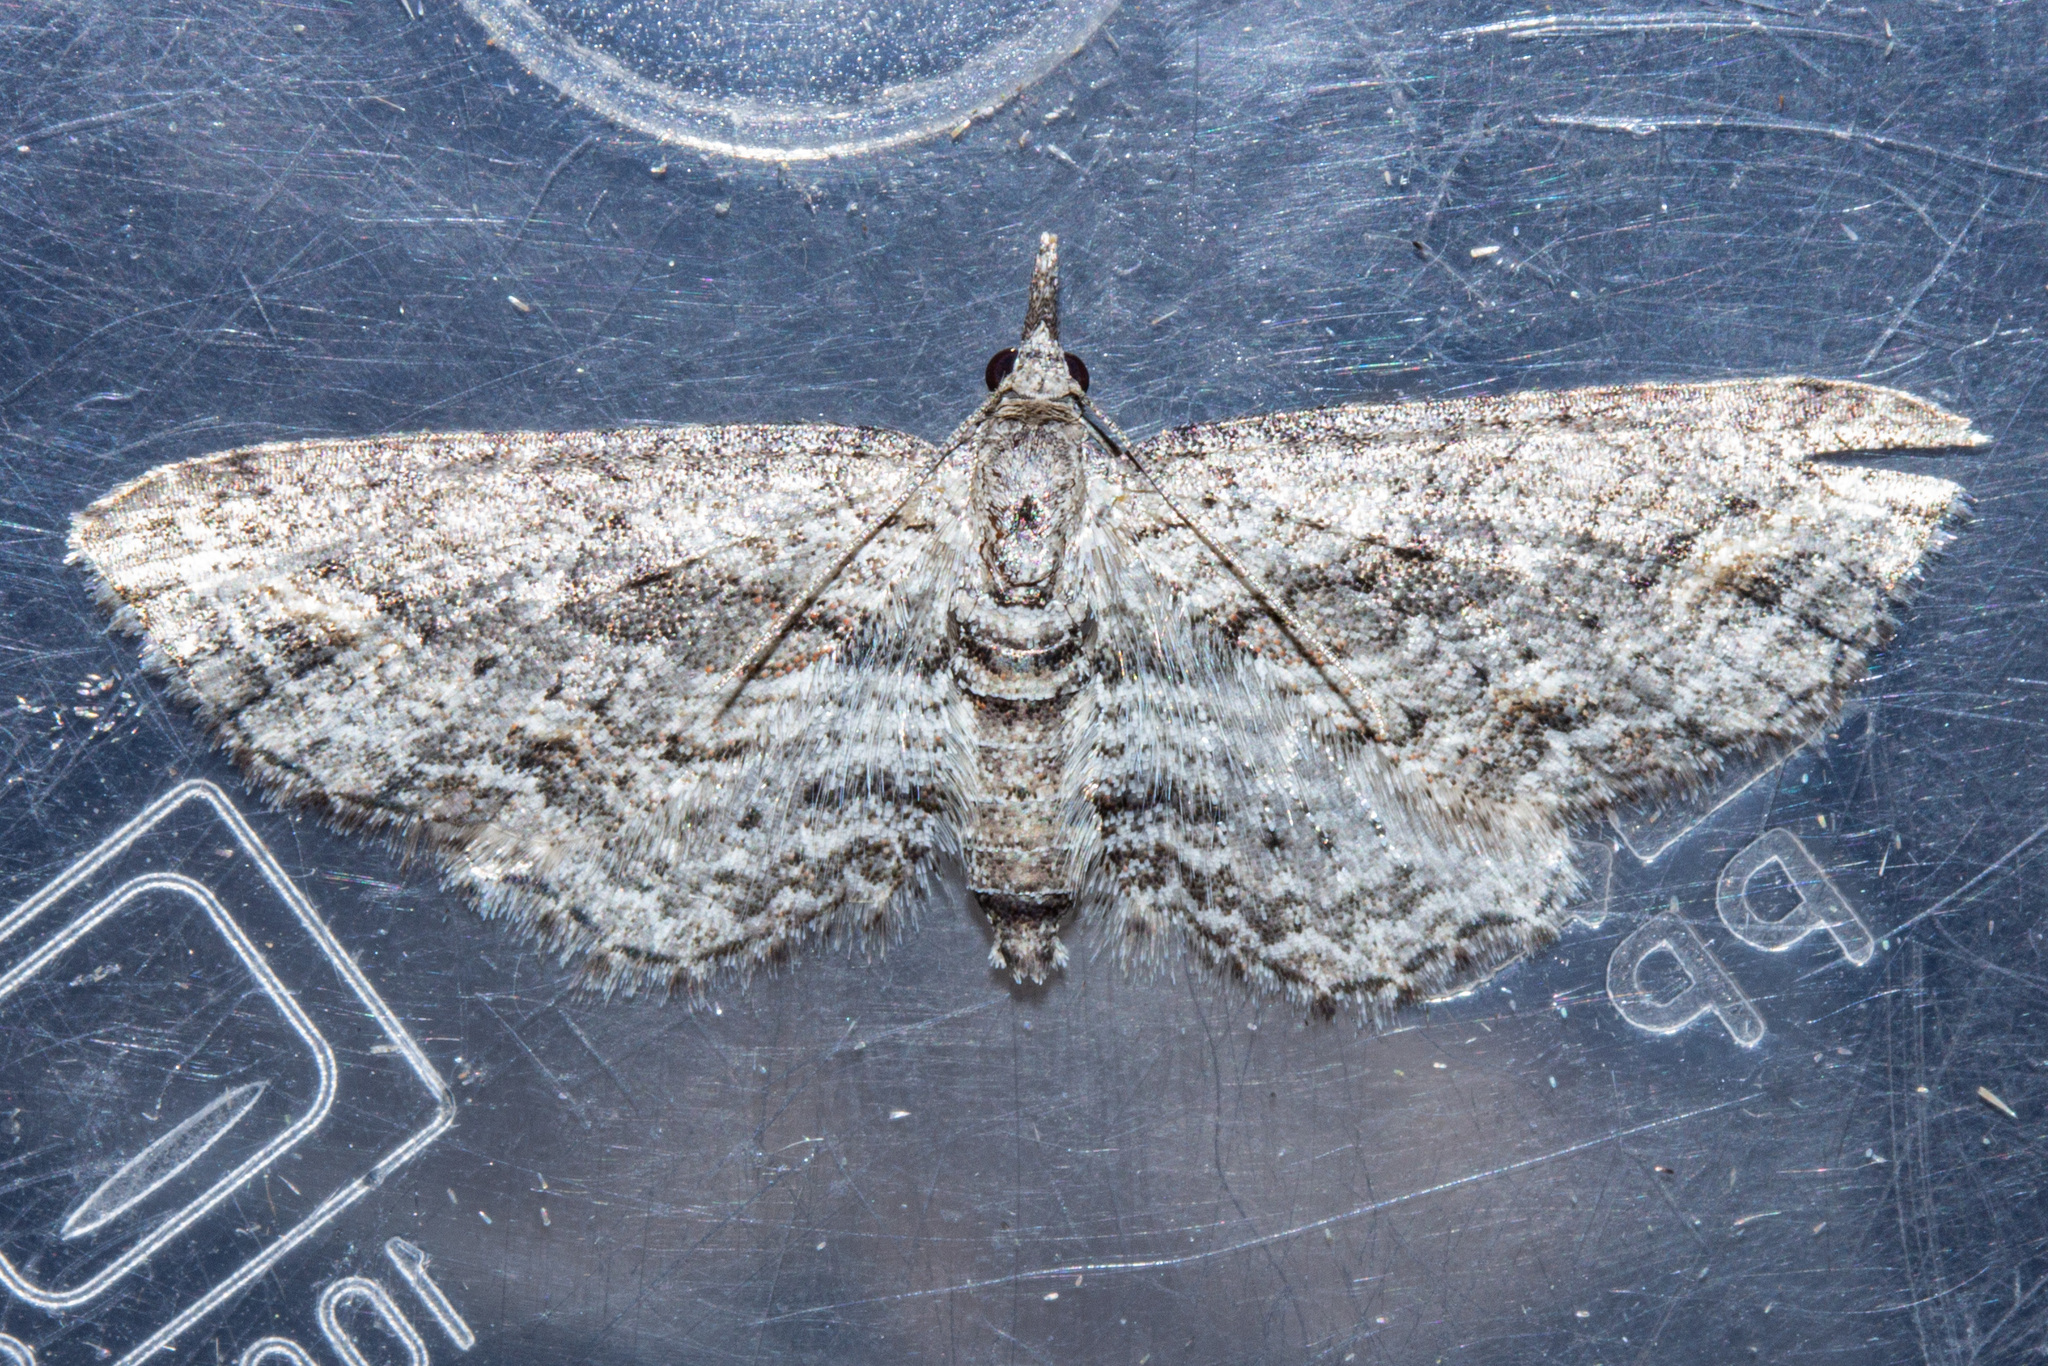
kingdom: Animalia
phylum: Arthropoda
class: Insecta
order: Lepidoptera
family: Geometridae
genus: Pasiphila
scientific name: Pasiphila humilis
